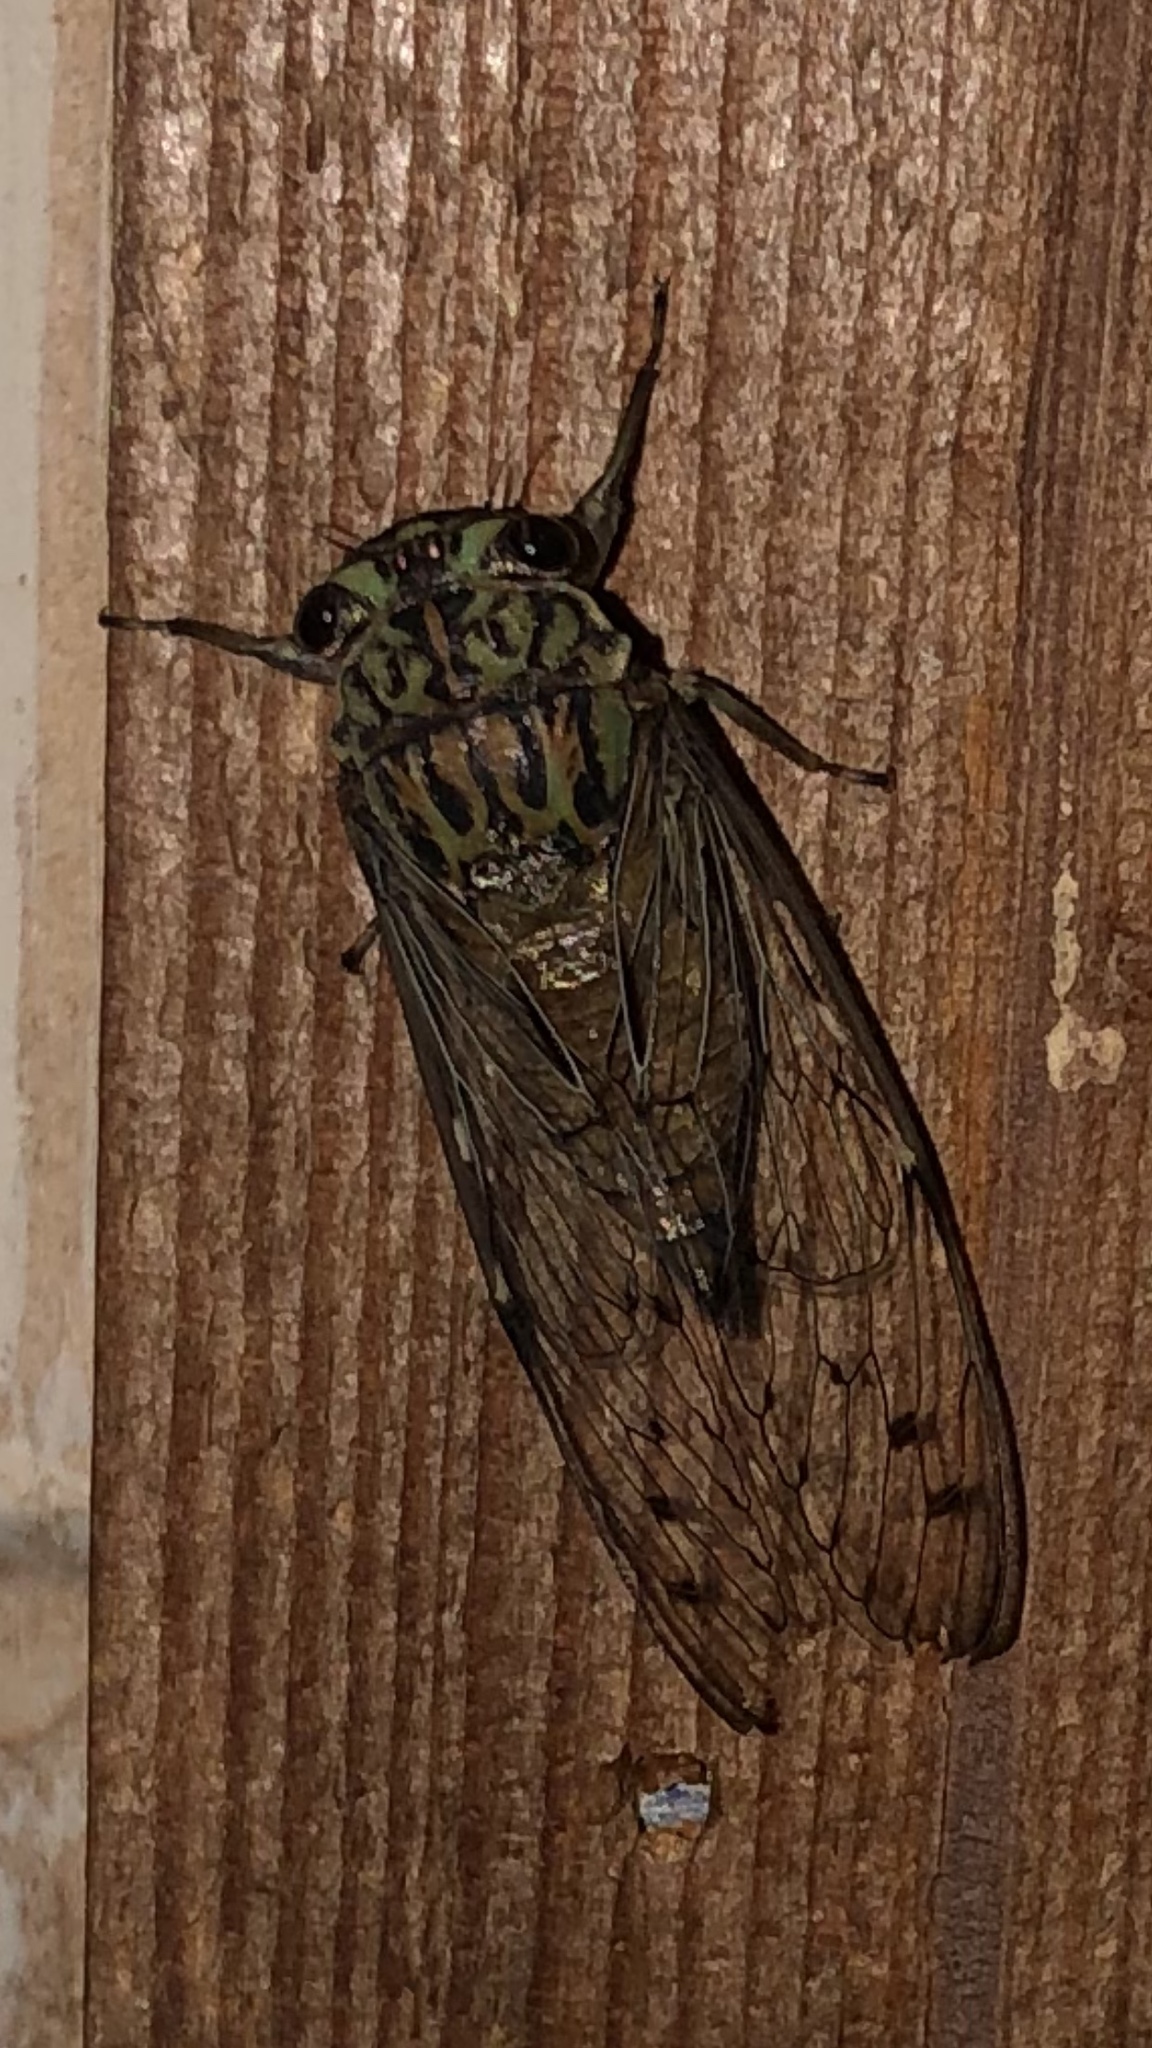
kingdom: Animalia
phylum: Arthropoda
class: Insecta
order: Hemiptera
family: Cicadidae
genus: Neocicada
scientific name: Neocicada hieroglyphica
